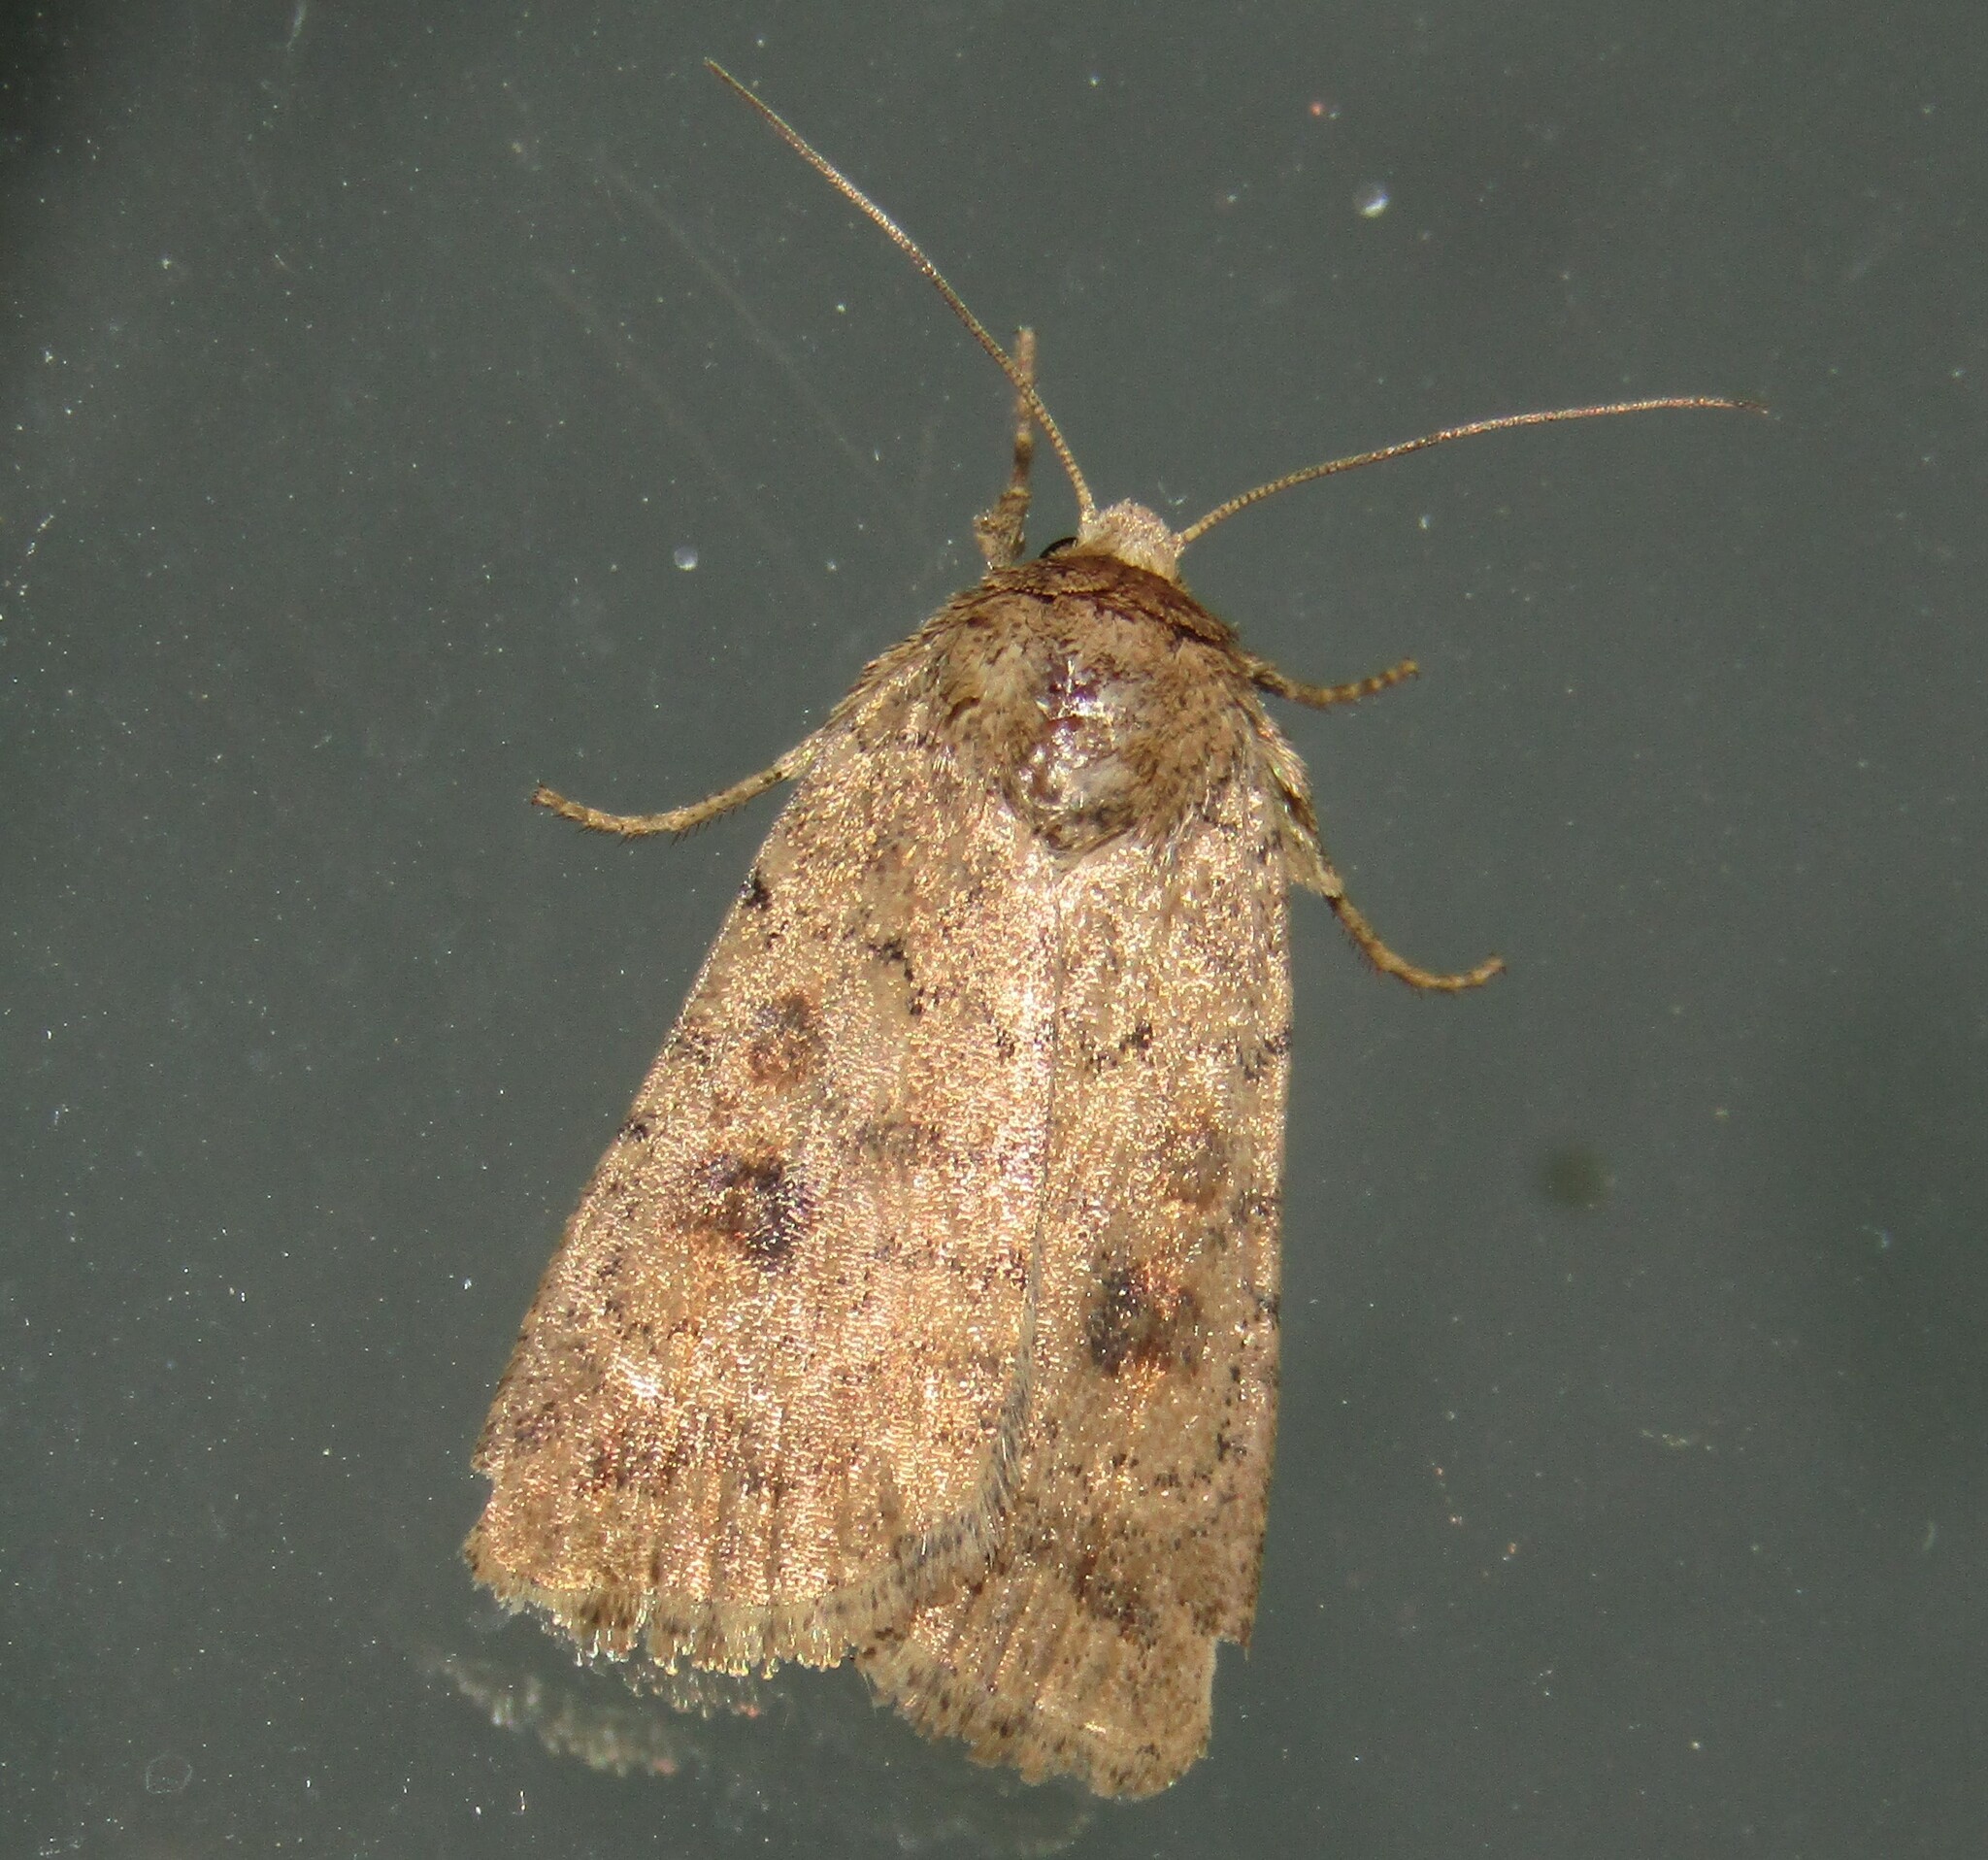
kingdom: Animalia
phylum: Arthropoda
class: Insecta
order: Lepidoptera
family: Noctuidae
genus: Caradrina
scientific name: Caradrina morpheus
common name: Mottled rustic
